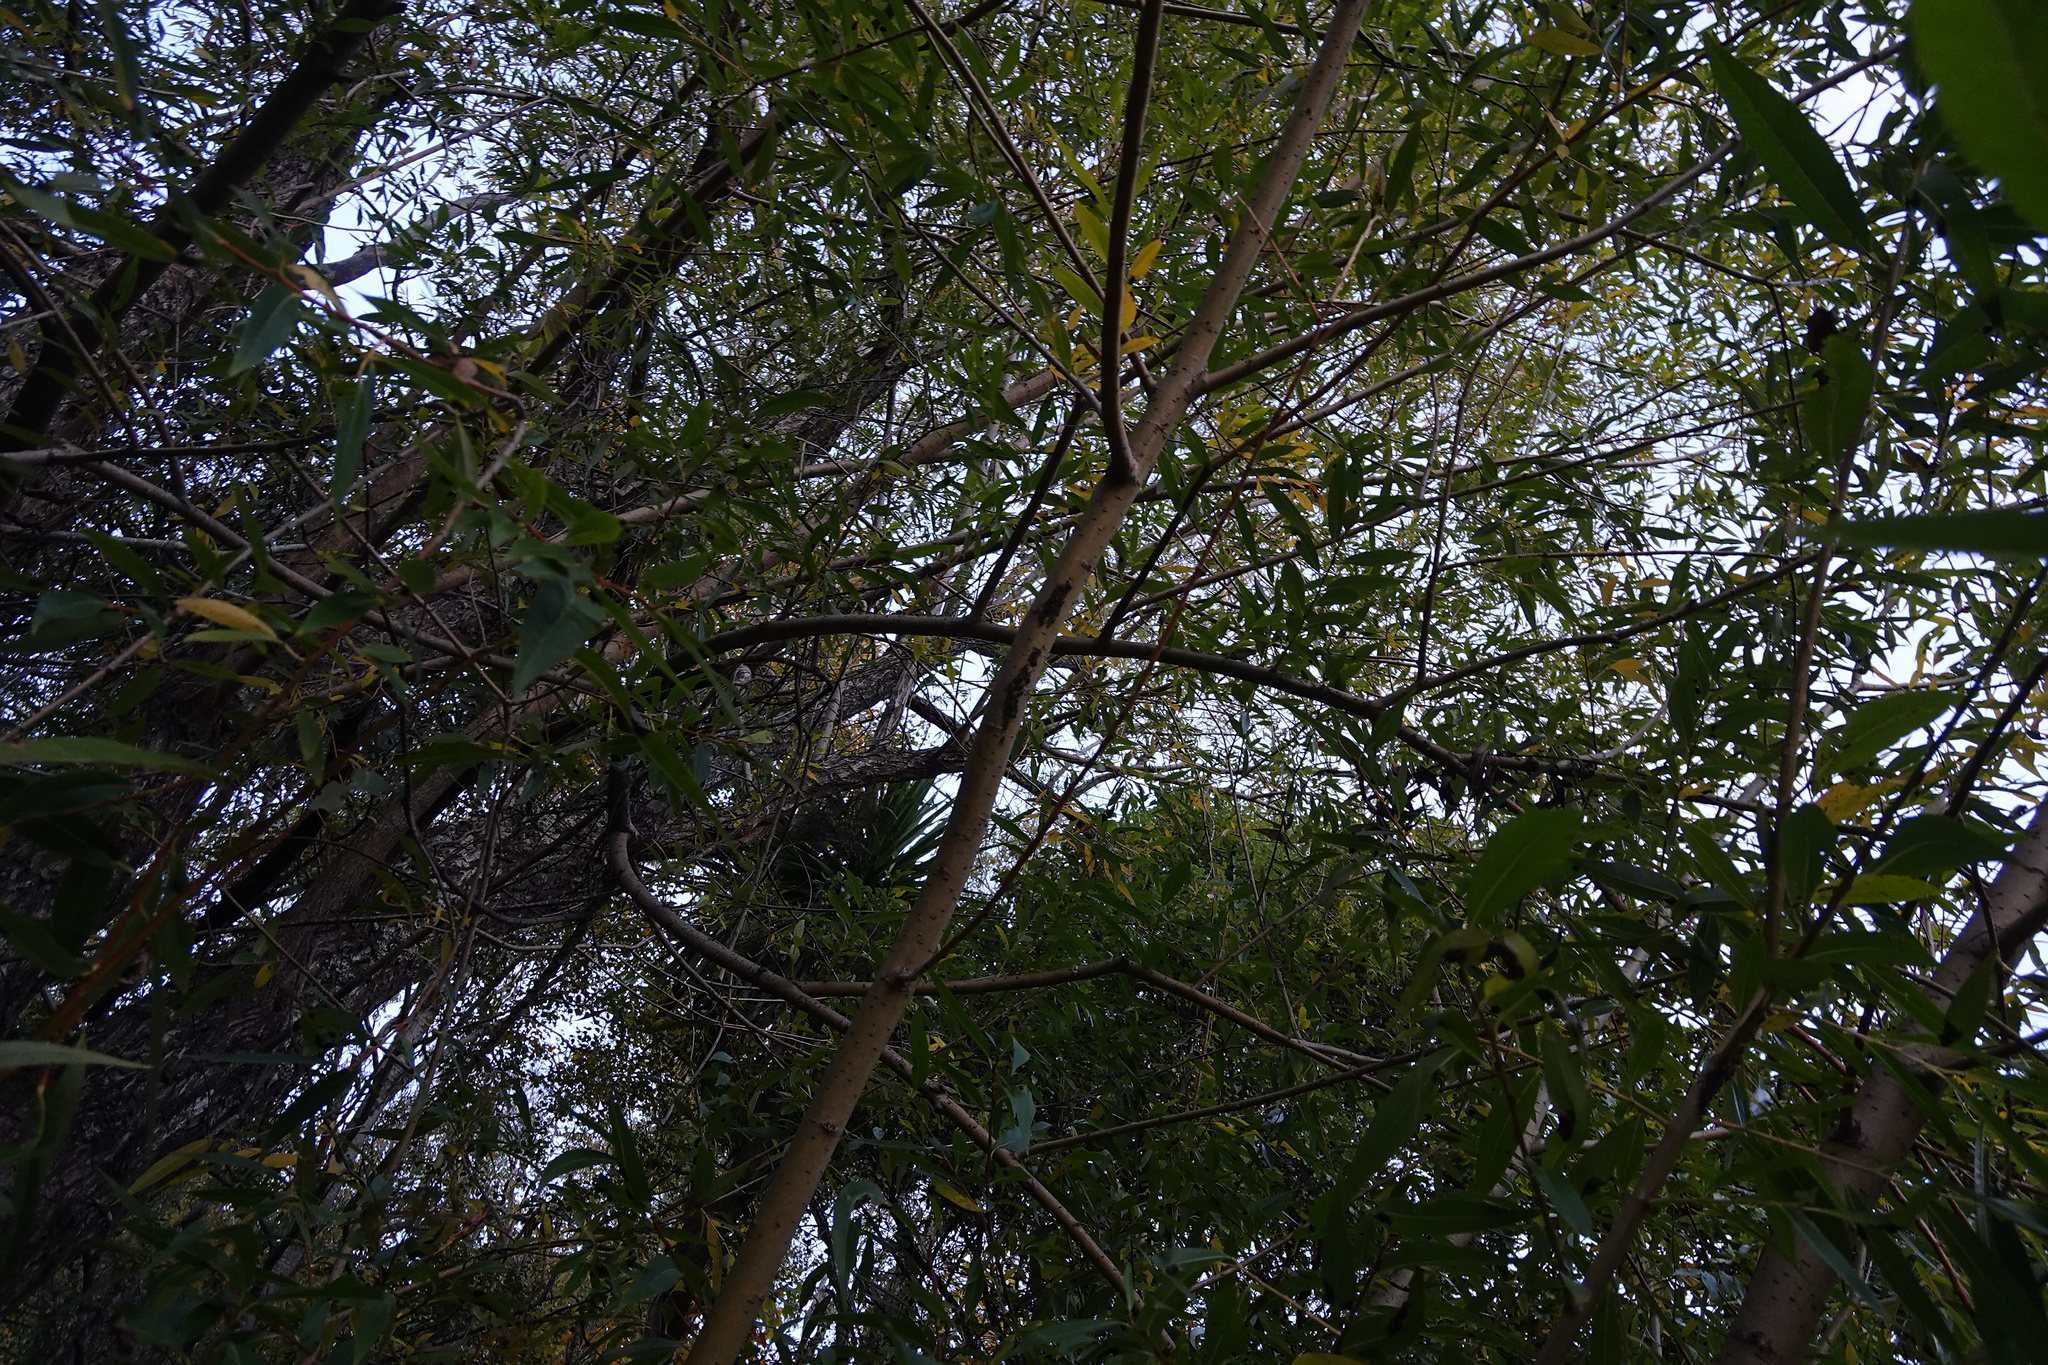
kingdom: Animalia
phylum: Arthropoda
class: Insecta
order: Hemiptera
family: Aphididae
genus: Tuberolachnus
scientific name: Tuberolachnus salignus
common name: Giant willow aphid
